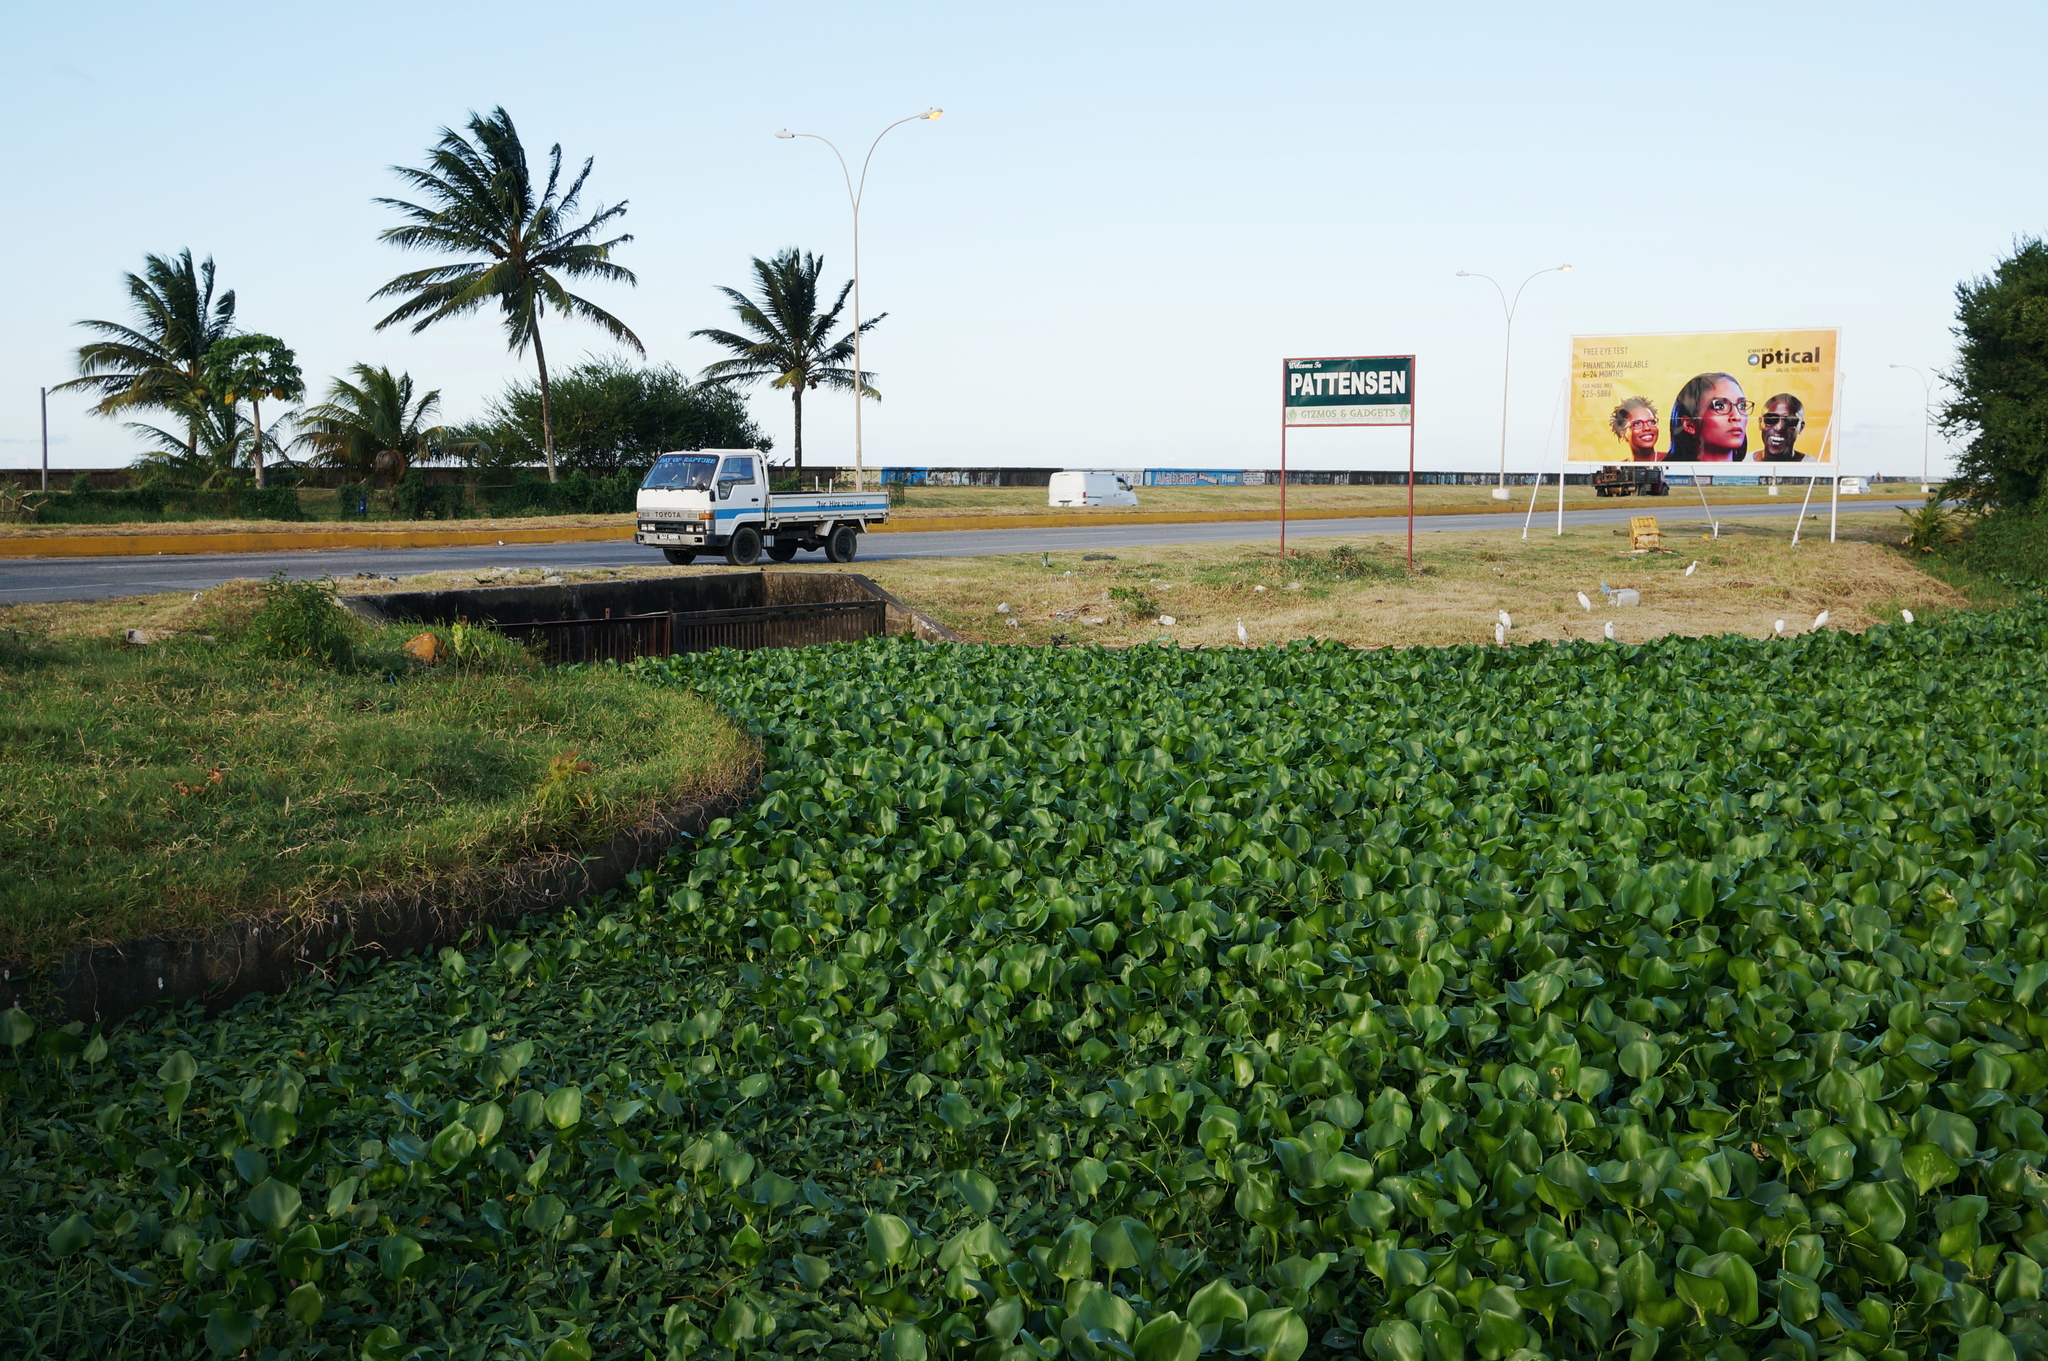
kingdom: Plantae
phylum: Tracheophyta
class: Liliopsida
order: Commelinales
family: Pontederiaceae
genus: Pontederia
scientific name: Pontederia crassipes
